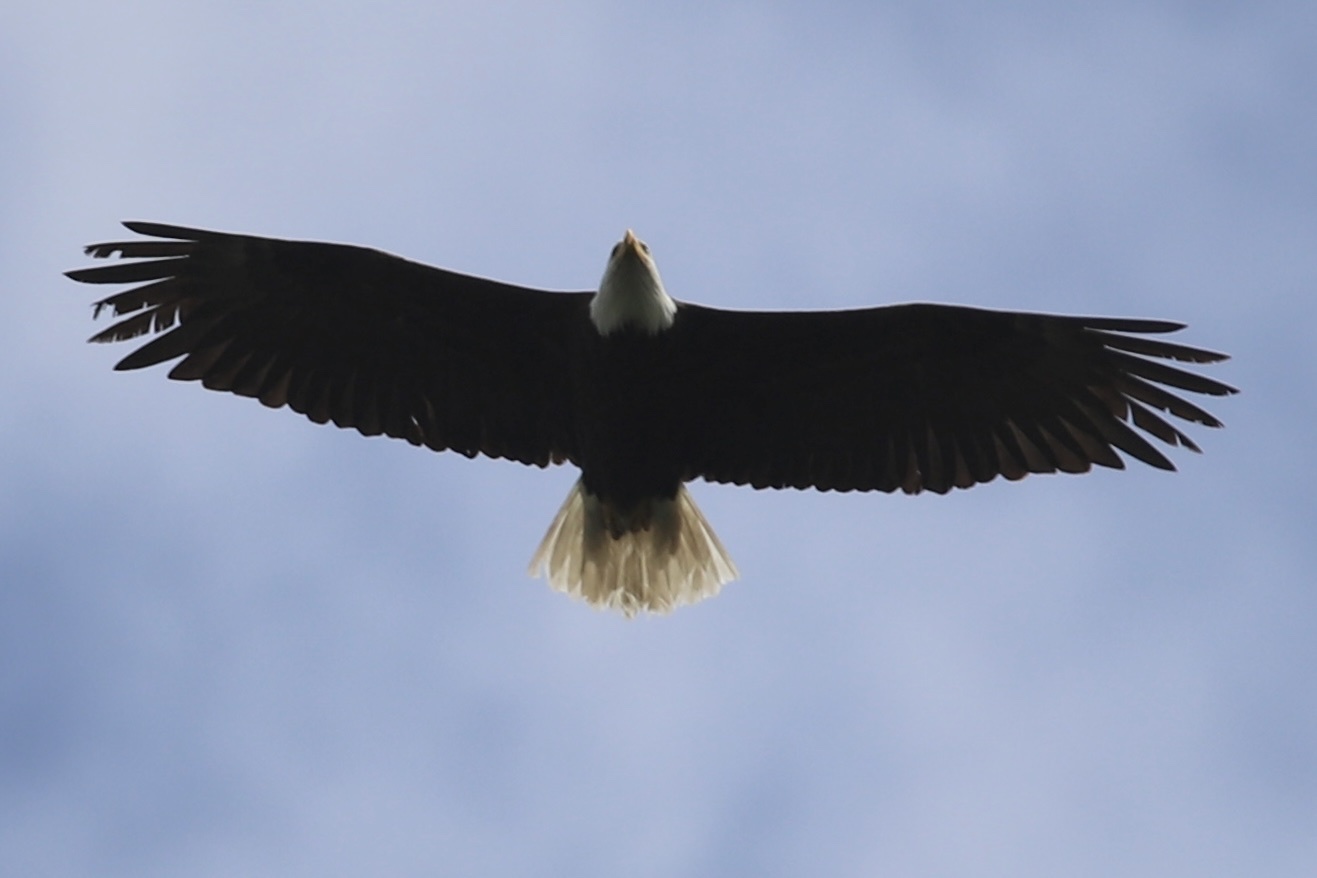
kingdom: Animalia
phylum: Chordata
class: Aves
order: Accipitriformes
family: Accipitridae
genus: Haliaeetus
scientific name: Haliaeetus leucocephalus
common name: Bald eagle
